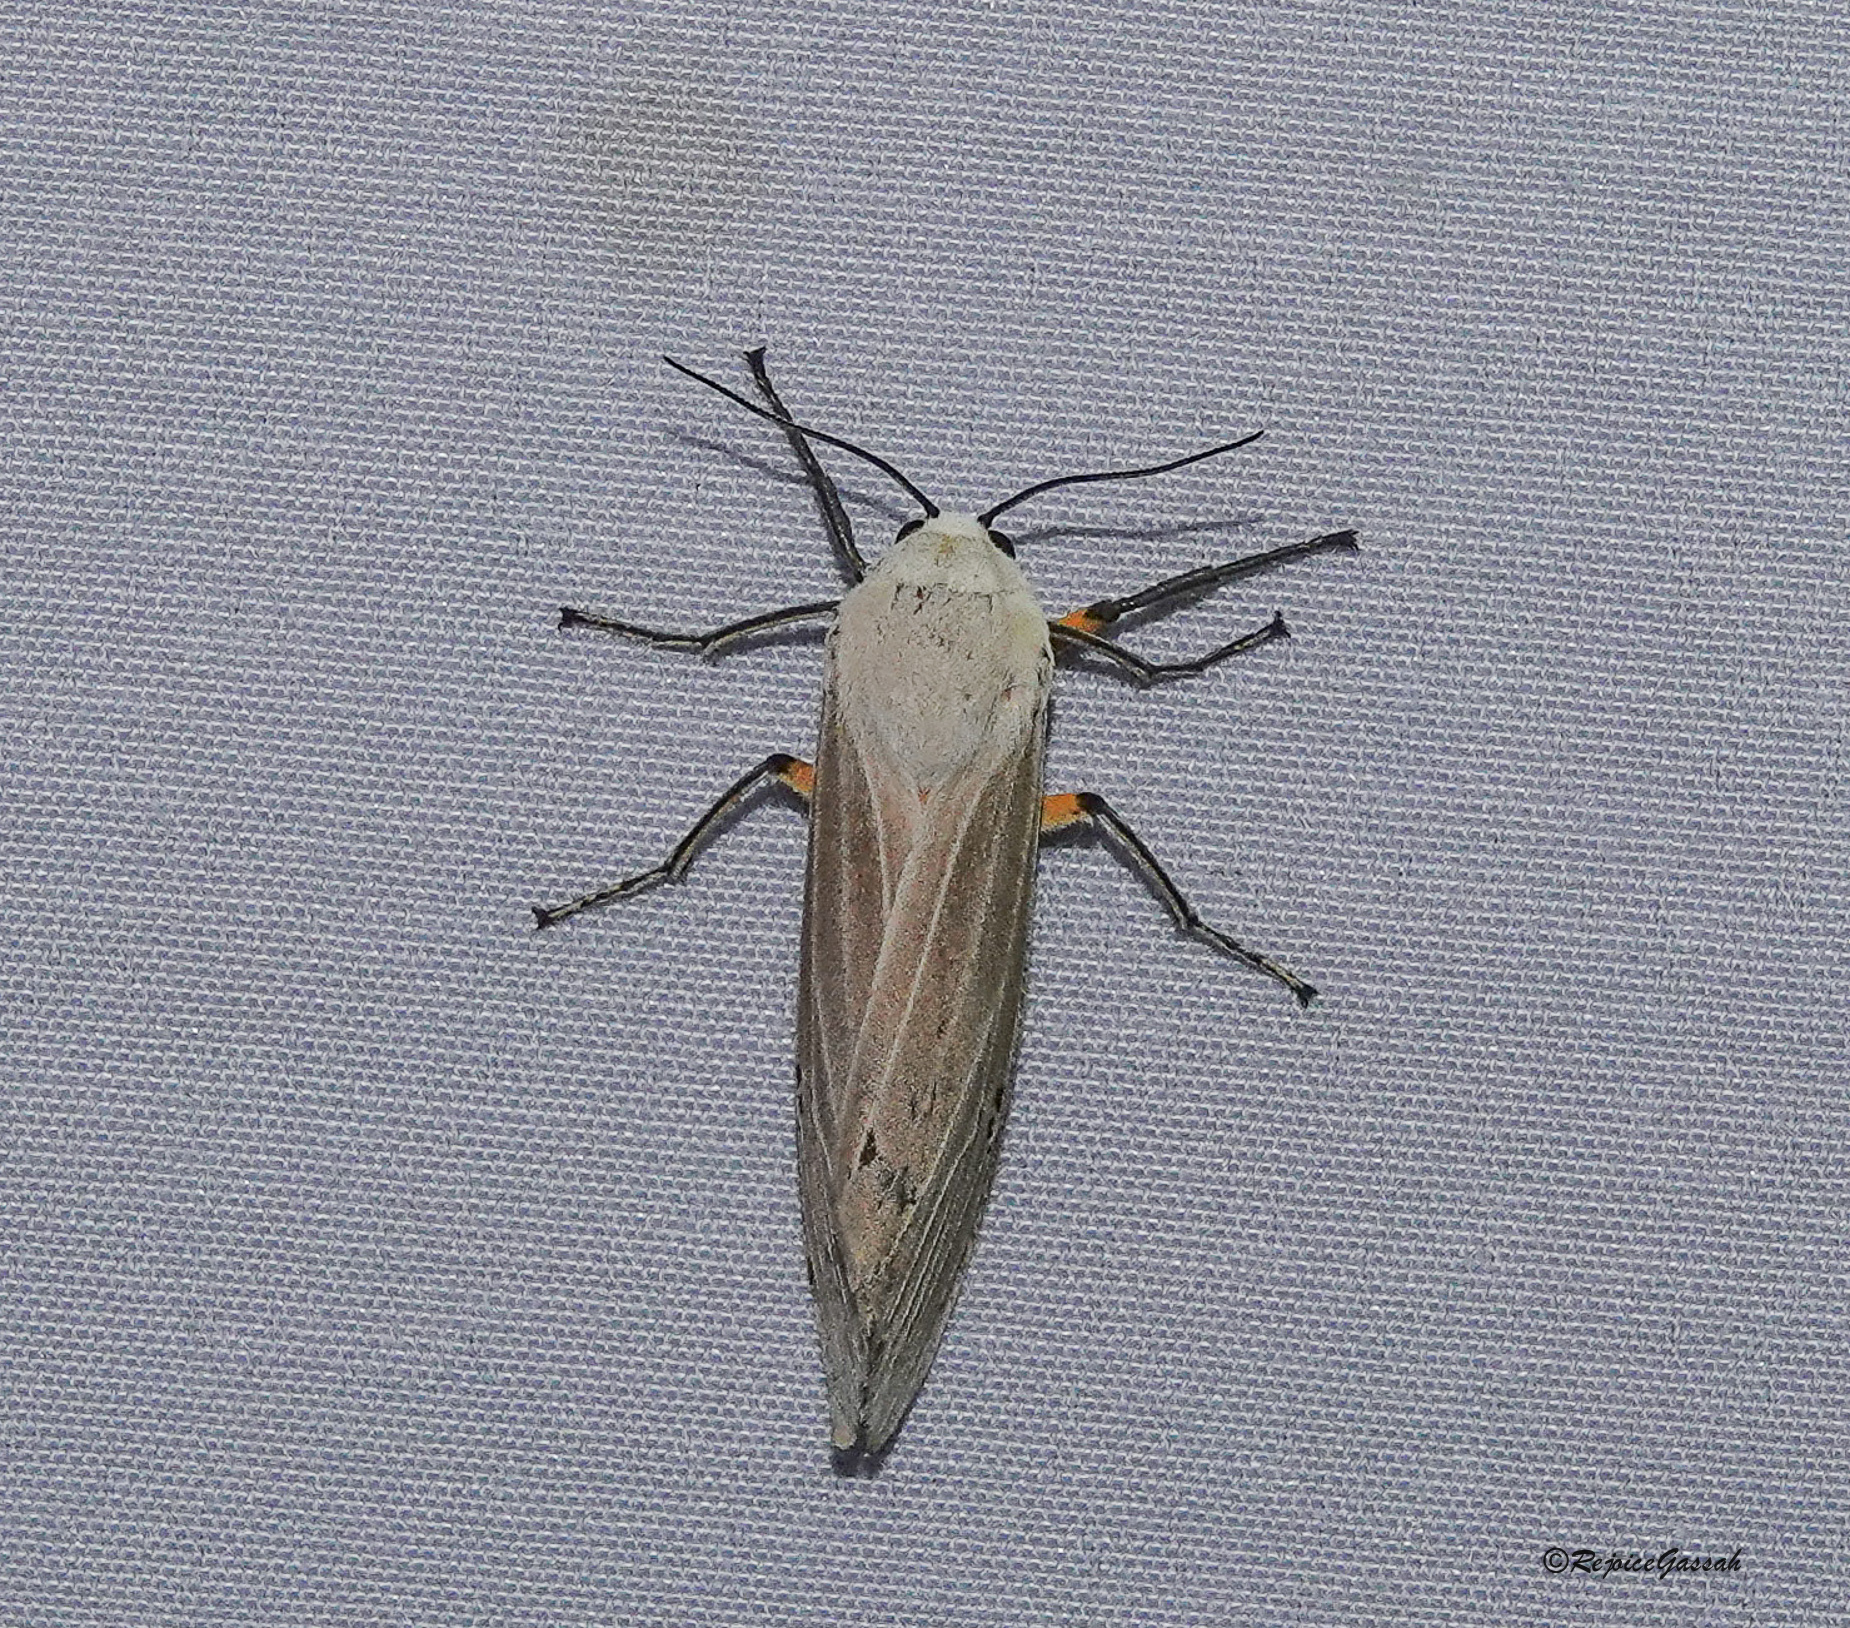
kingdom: Animalia
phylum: Arthropoda
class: Insecta
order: Lepidoptera
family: Erebidae
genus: Creatonotos
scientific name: Creatonotos transiens
